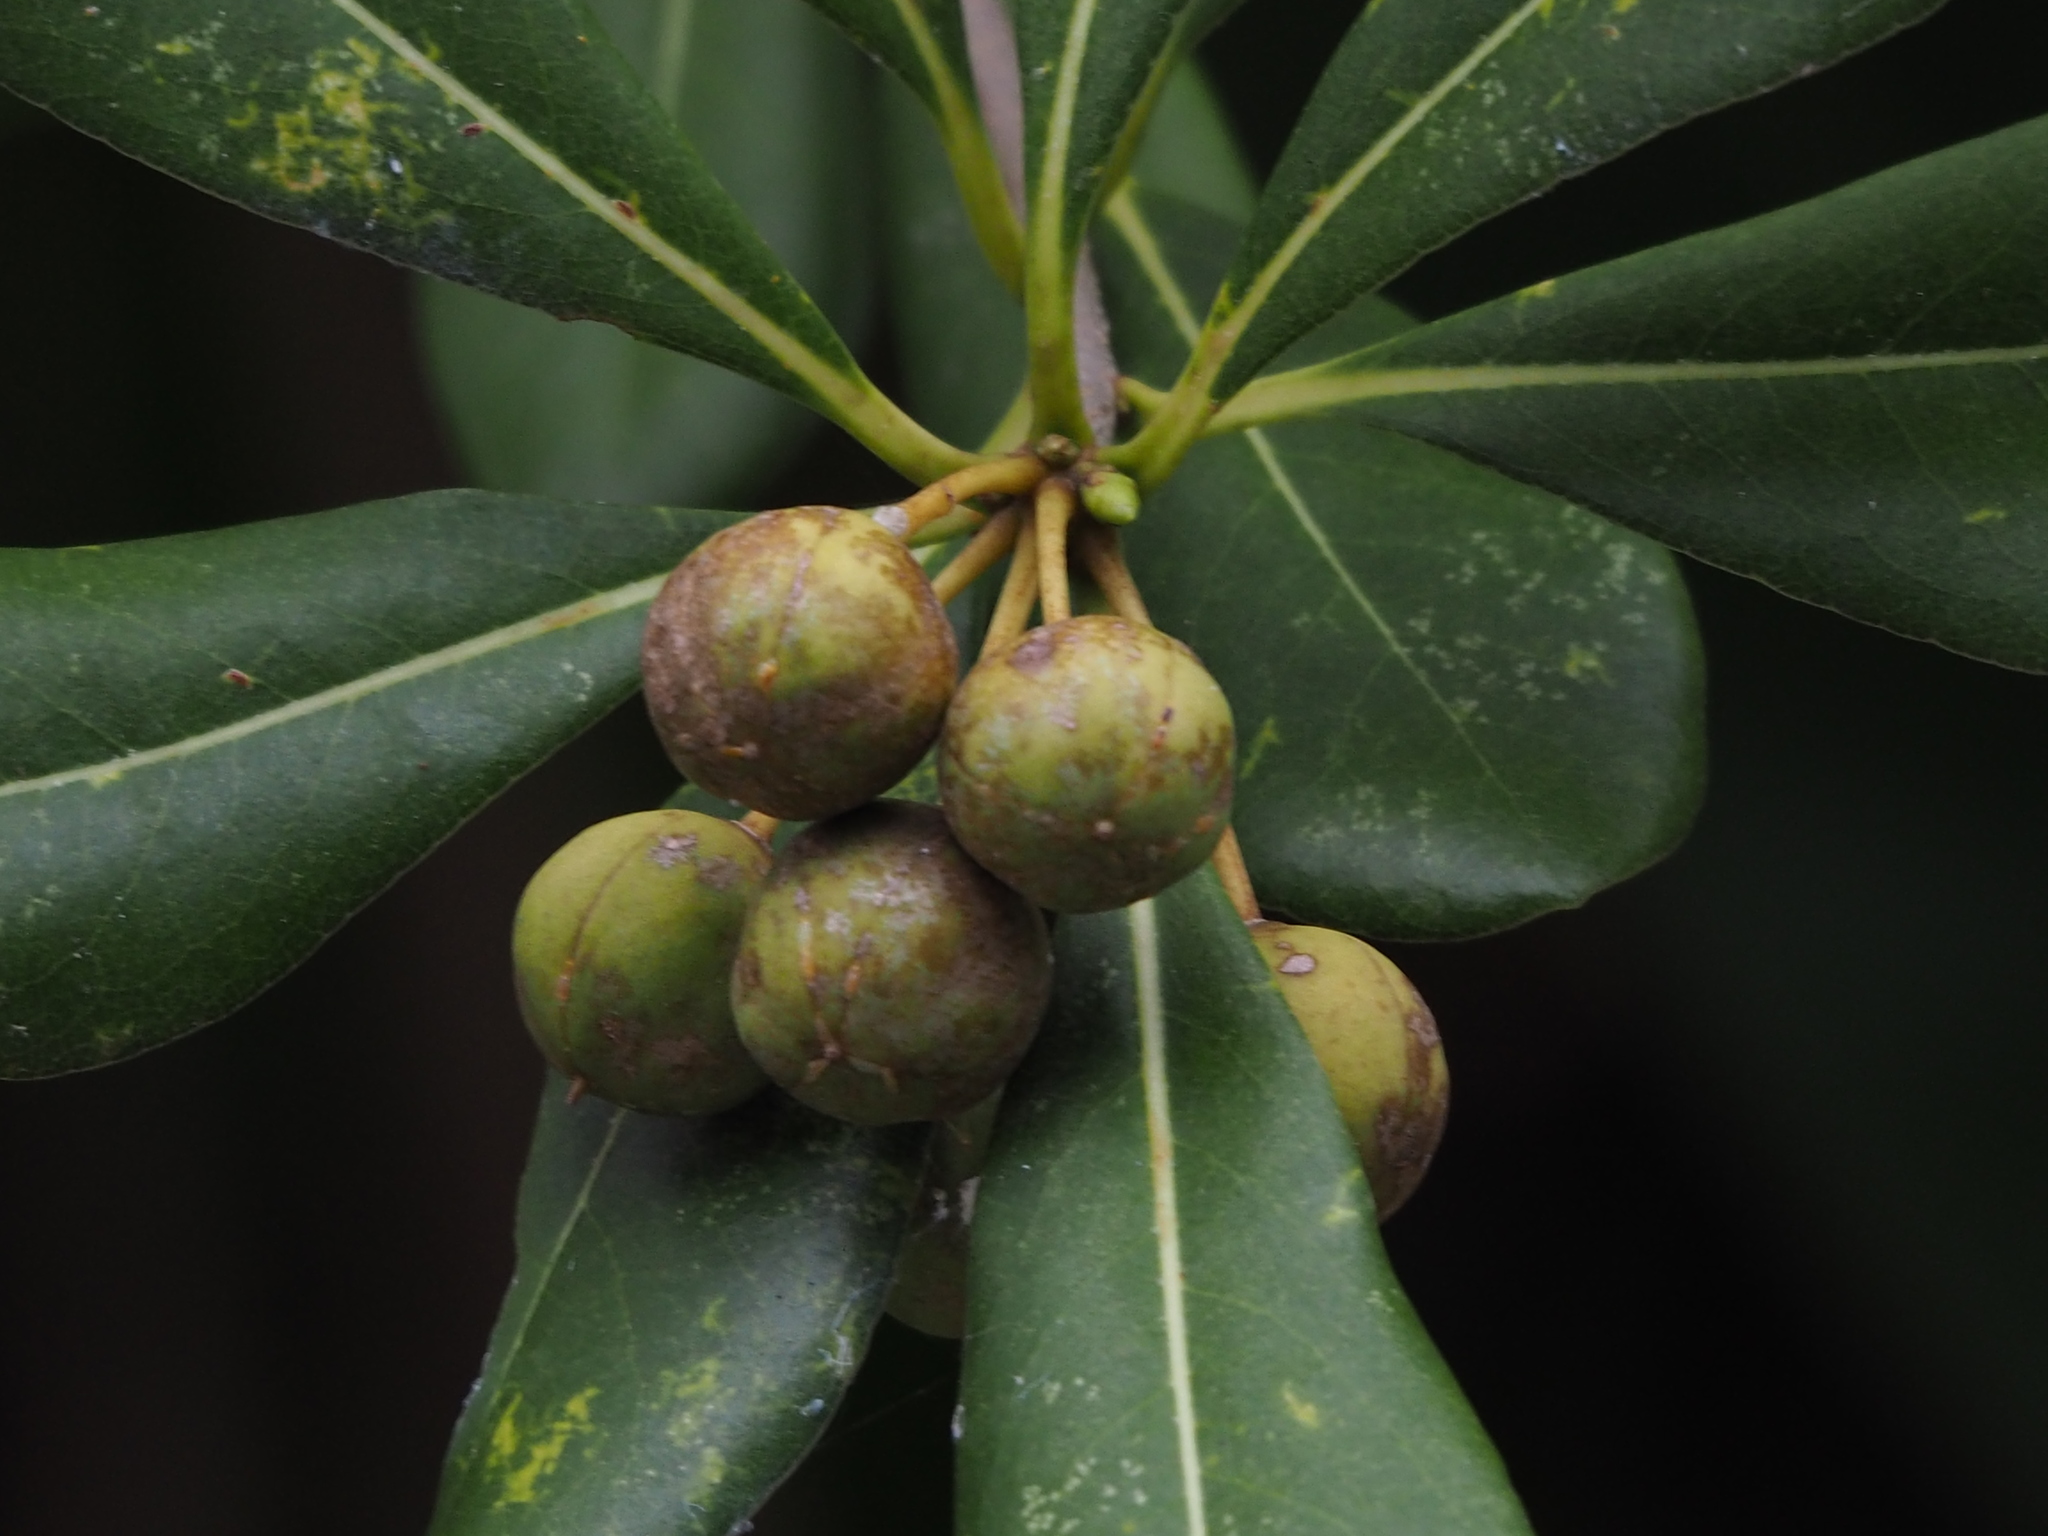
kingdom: Plantae
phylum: Tracheophyta
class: Magnoliopsida
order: Apiales
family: Pittosporaceae
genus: Pittosporum
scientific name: Pittosporum tobira
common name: Japanese cheesewood
